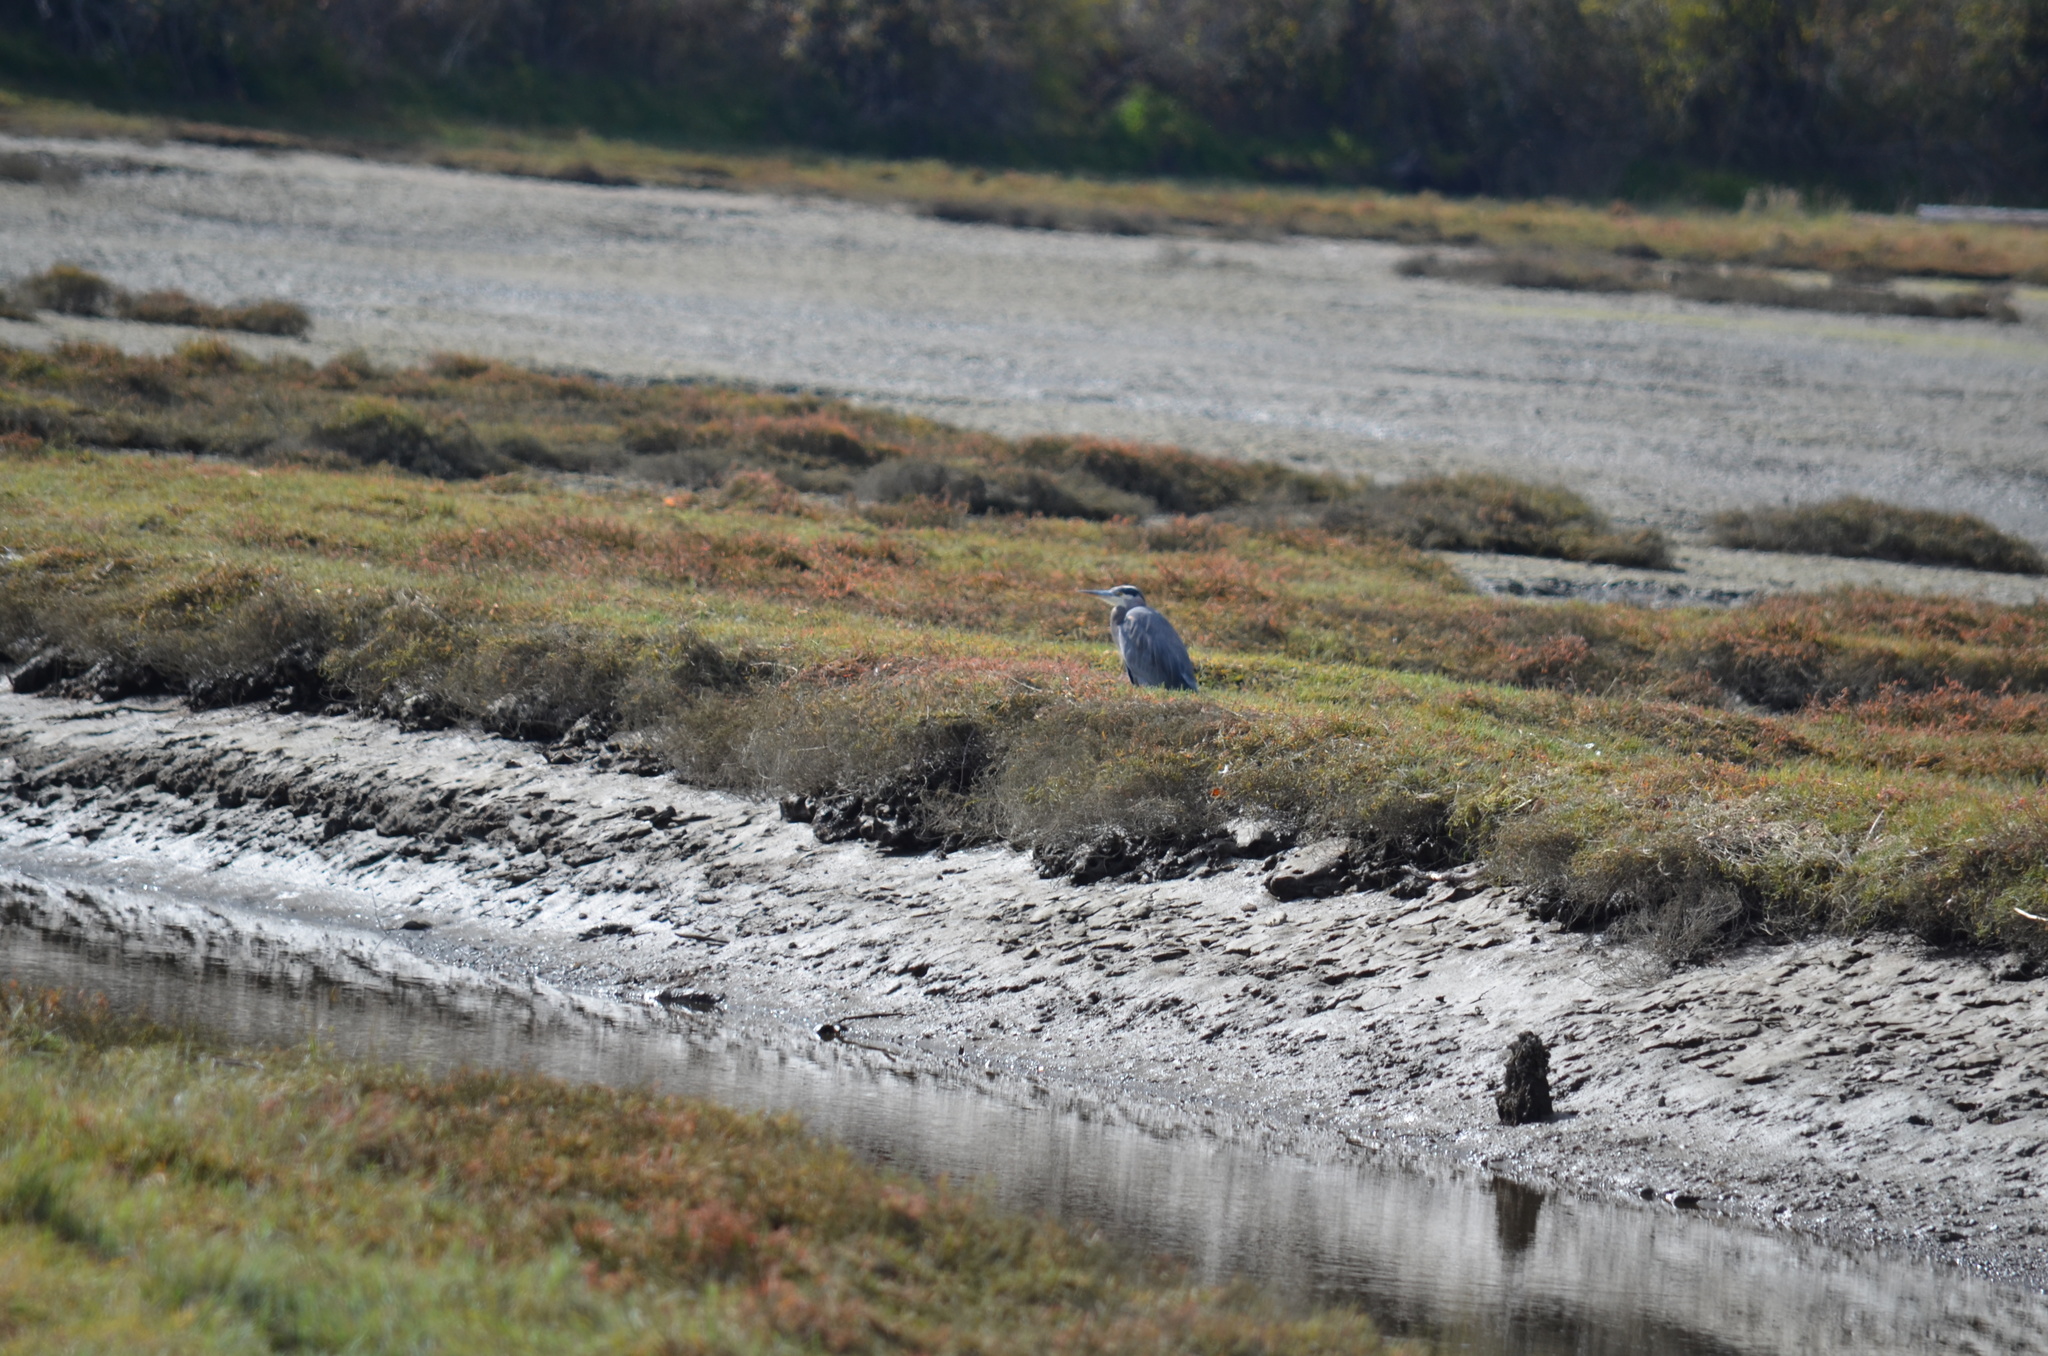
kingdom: Animalia
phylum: Chordata
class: Aves
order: Pelecaniformes
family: Ardeidae
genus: Ardea
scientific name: Ardea herodias
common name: Great blue heron
